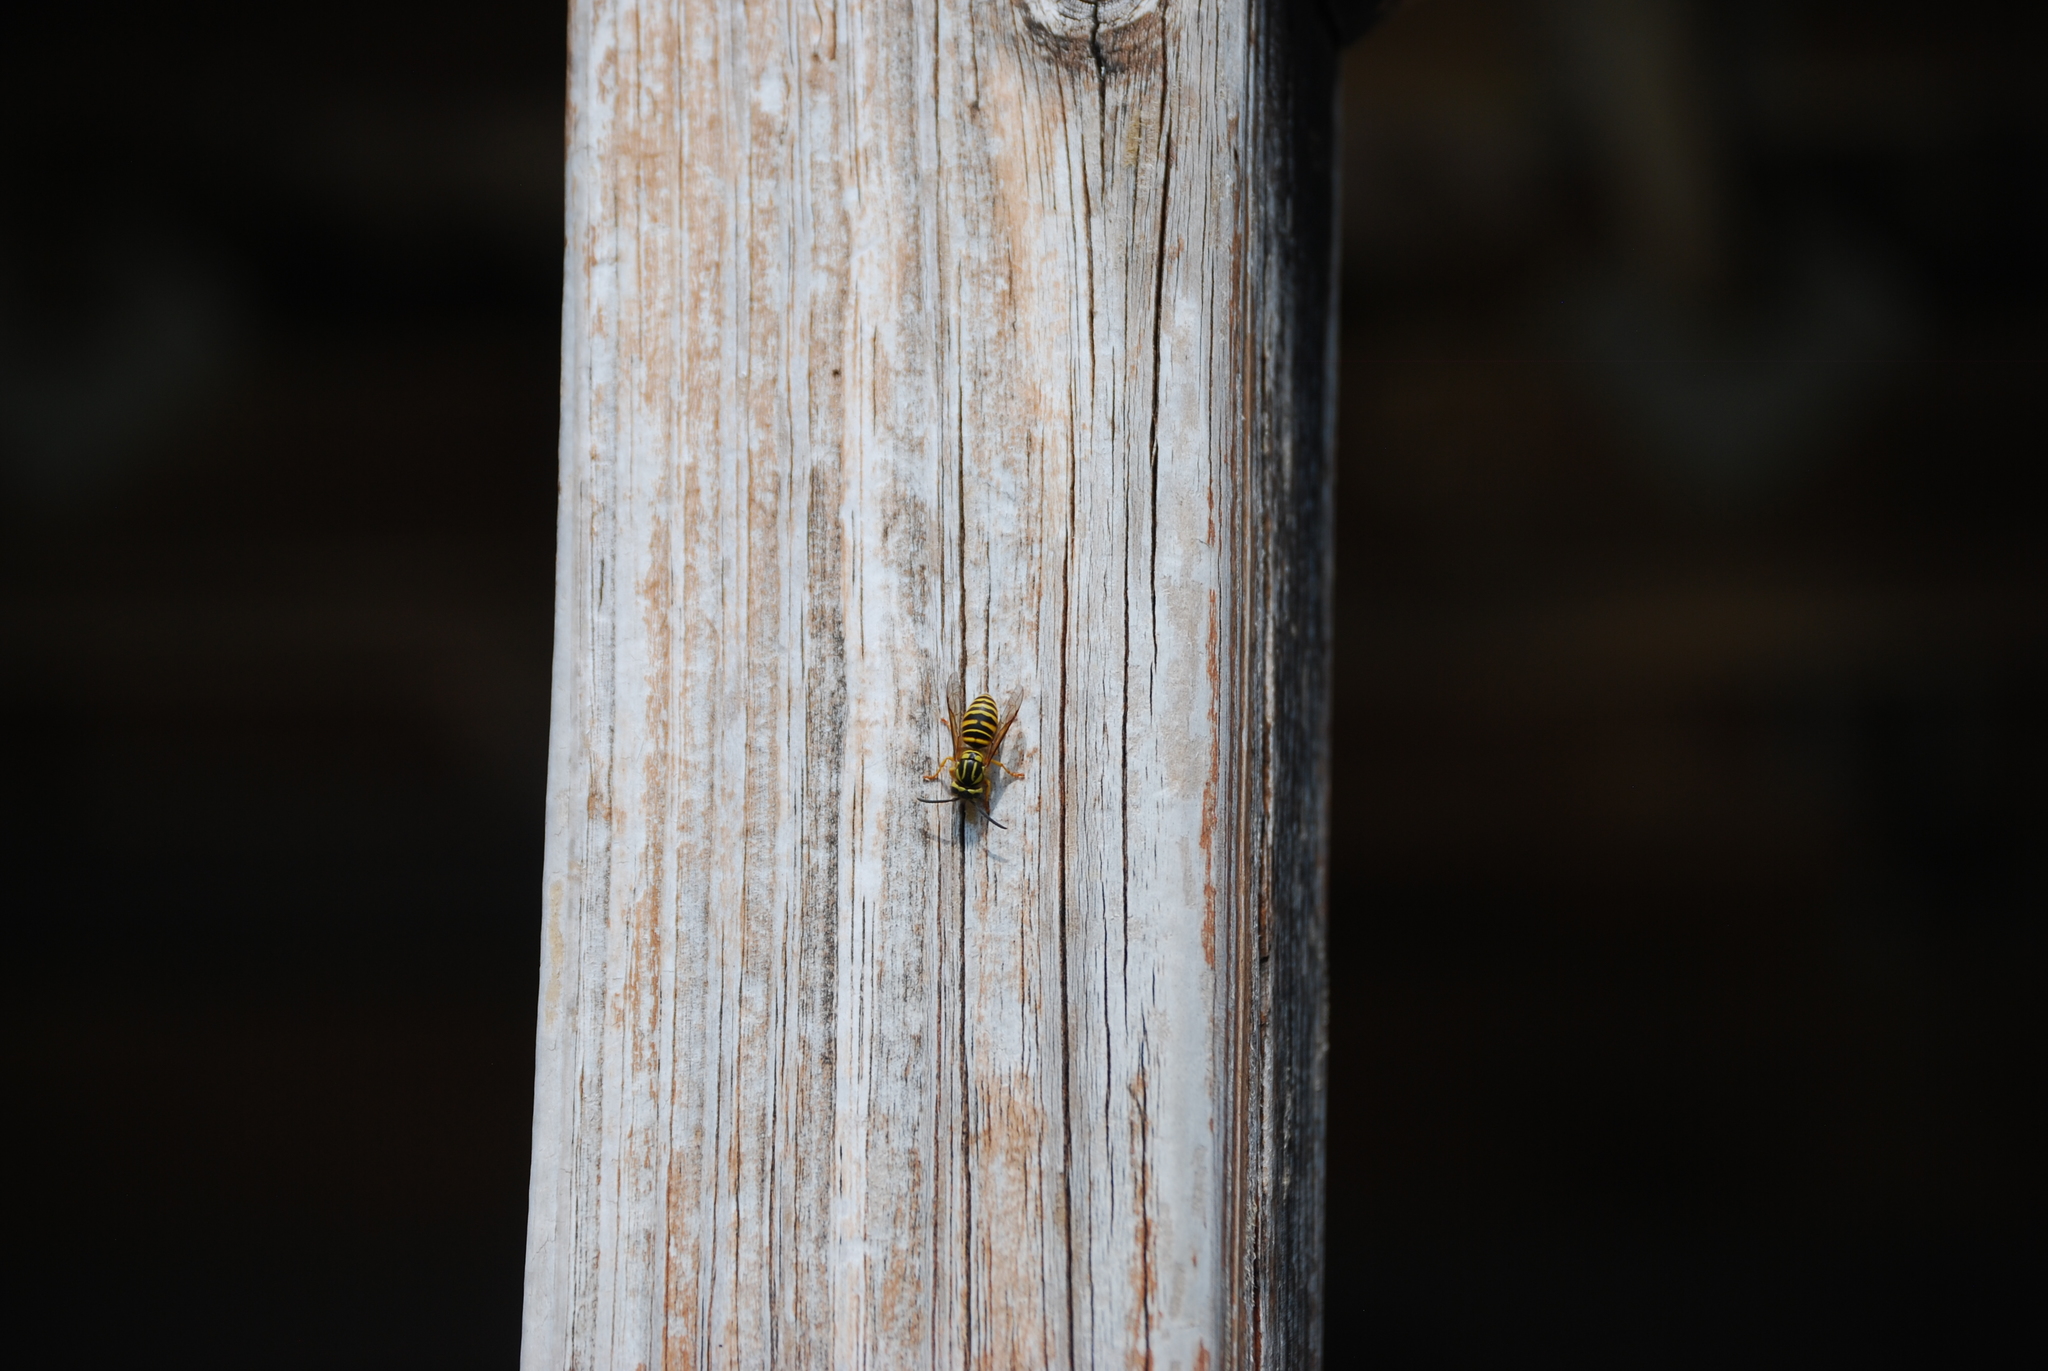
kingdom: Animalia
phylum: Arthropoda
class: Insecta
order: Hymenoptera
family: Vespidae
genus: Vespula
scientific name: Vespula squamosa
